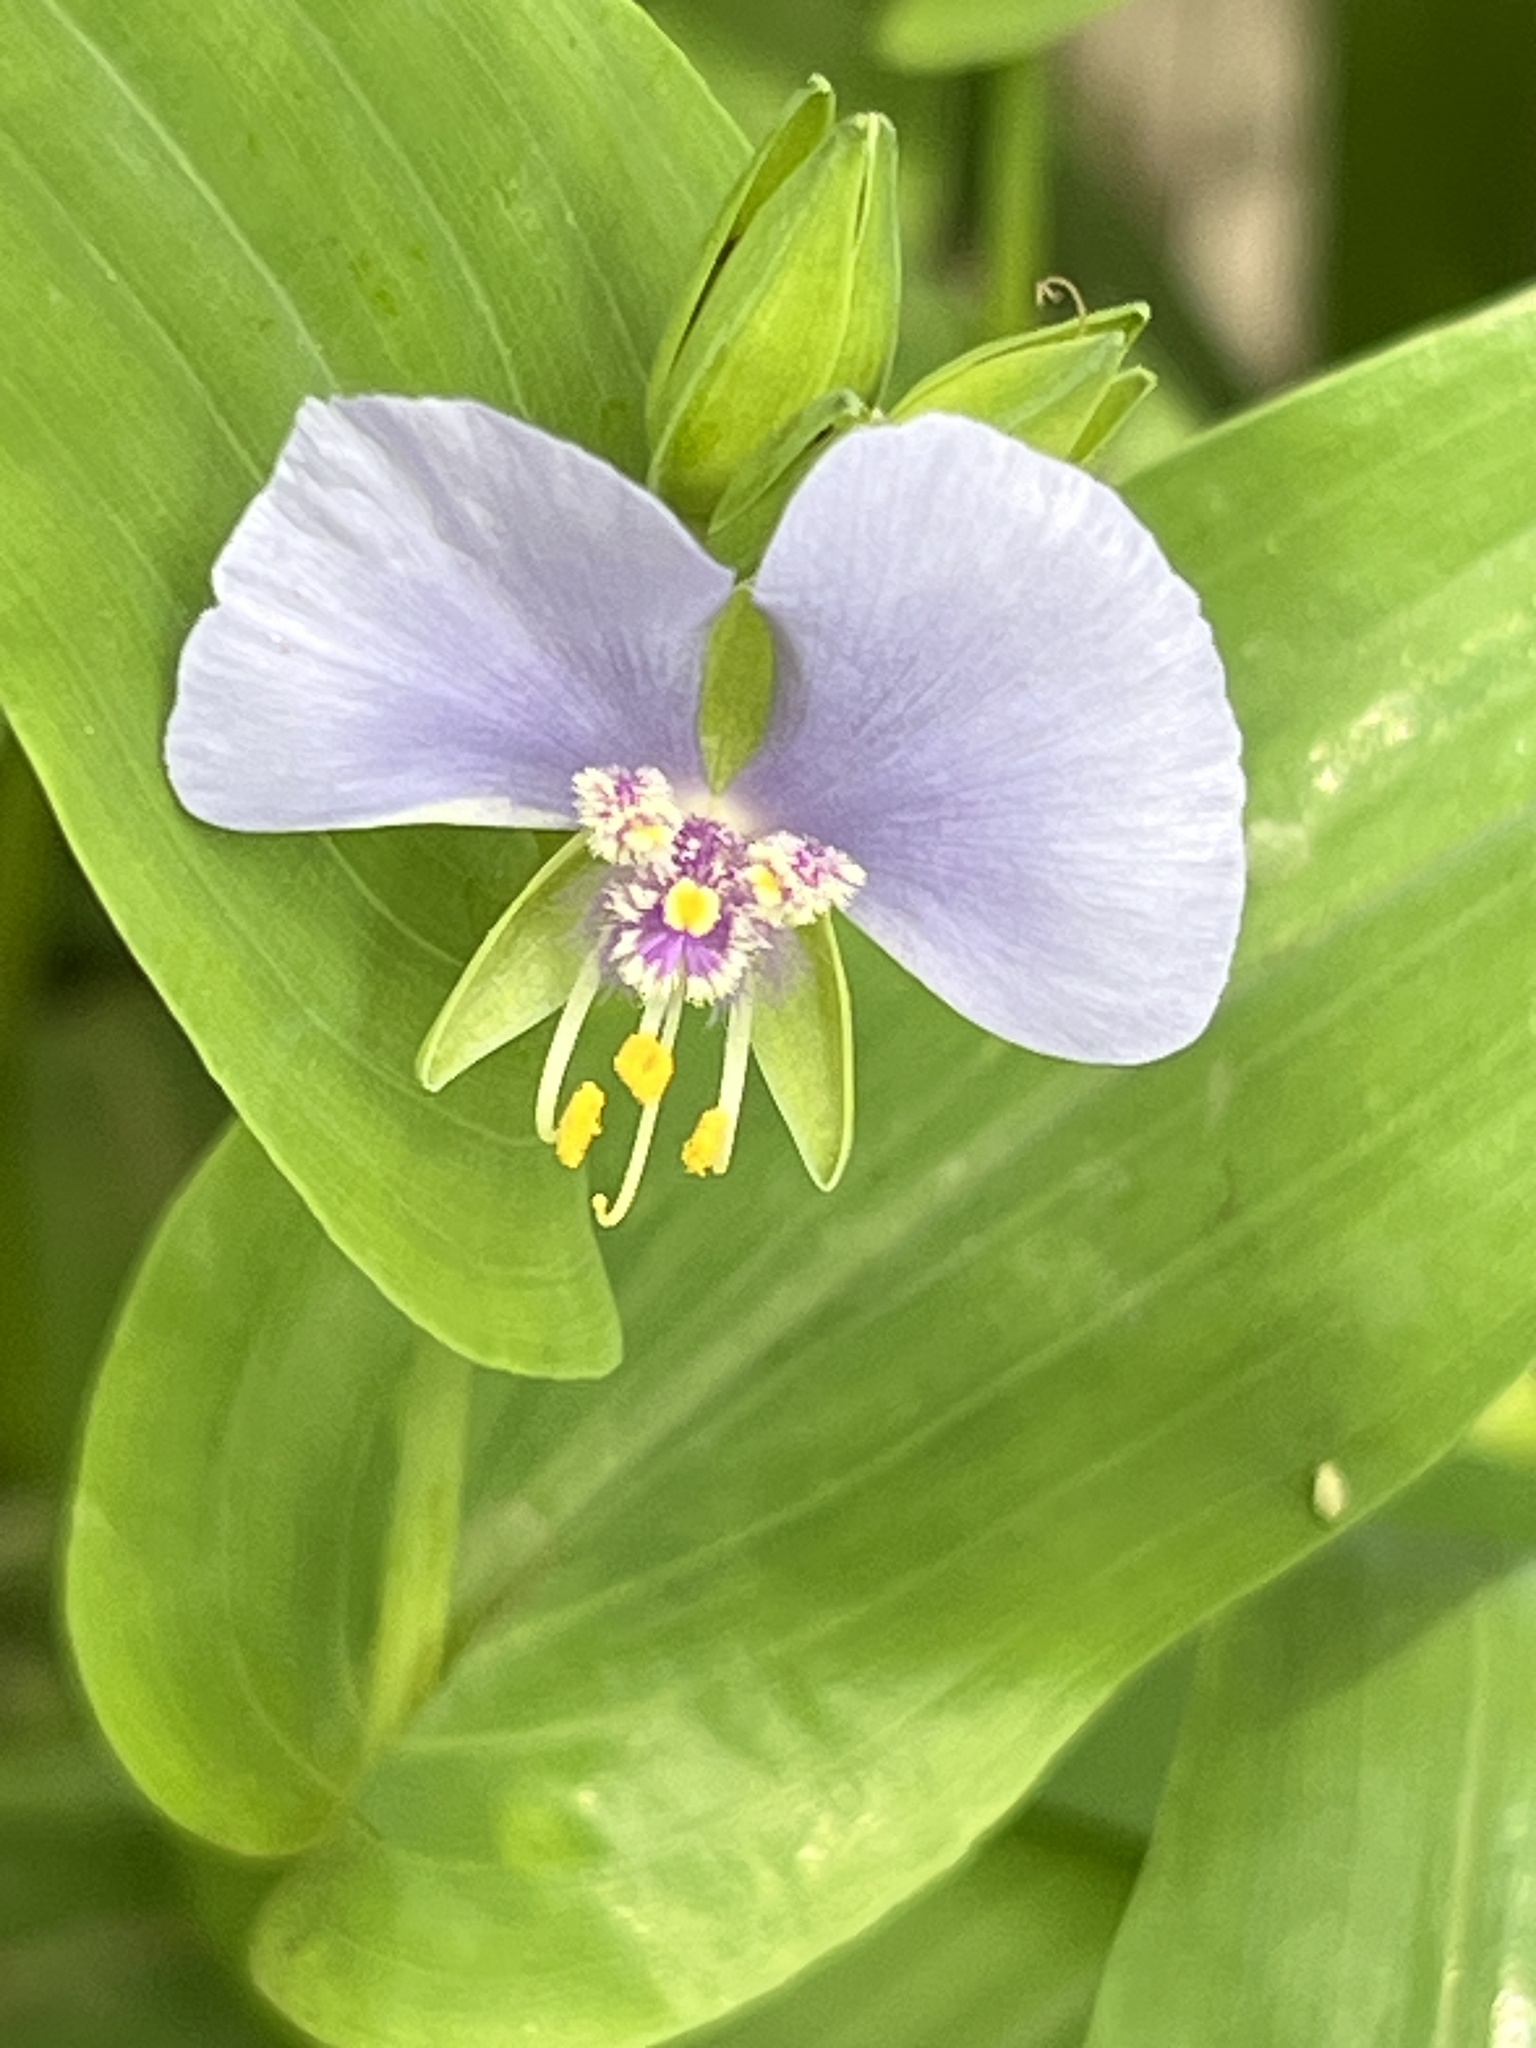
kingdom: Plantae
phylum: Tracheophyta
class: Liliopsida
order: Commelinales
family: Commelinaceae
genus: Tinantia
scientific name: Tinantia anomala
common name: False dayflower
